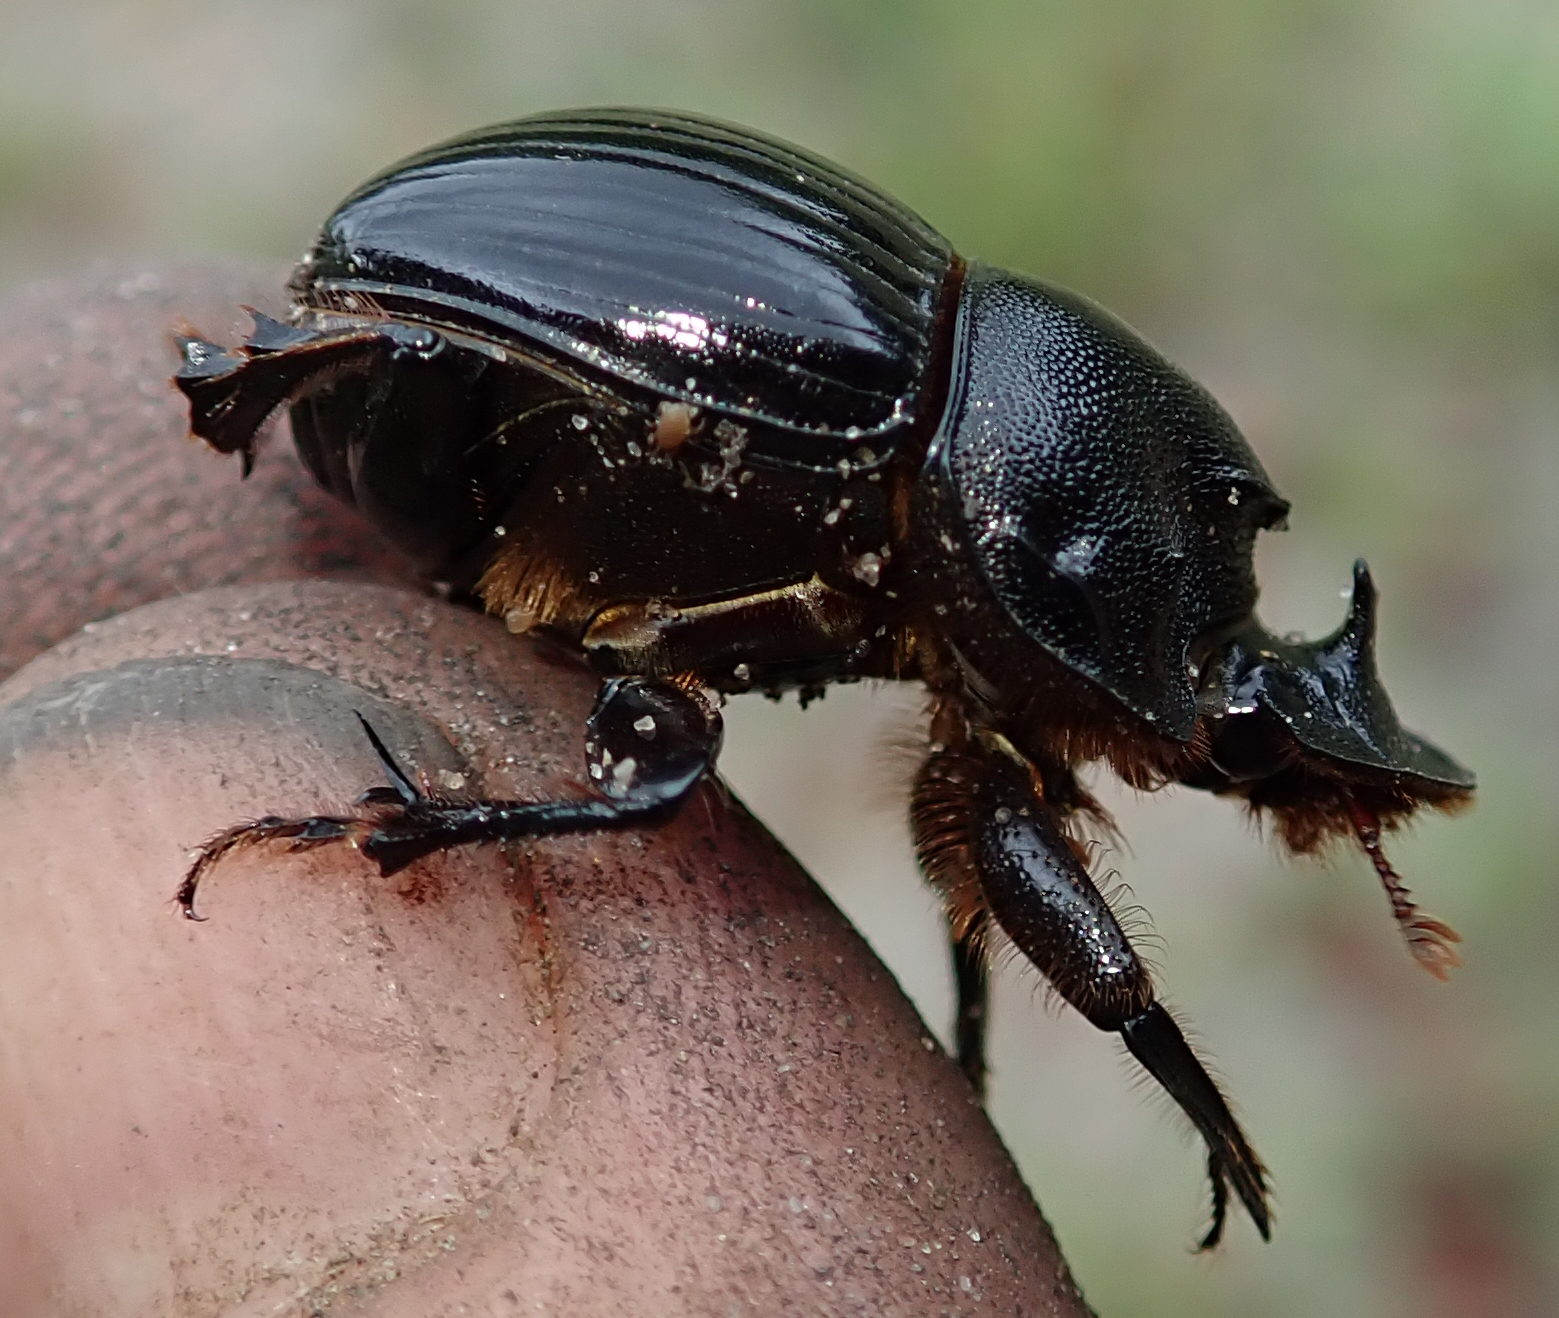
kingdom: Animalia
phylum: Arthropoda
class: Insecta
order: Coleoptera
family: Scarabaeidae
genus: Copris
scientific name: Copris elphenor
